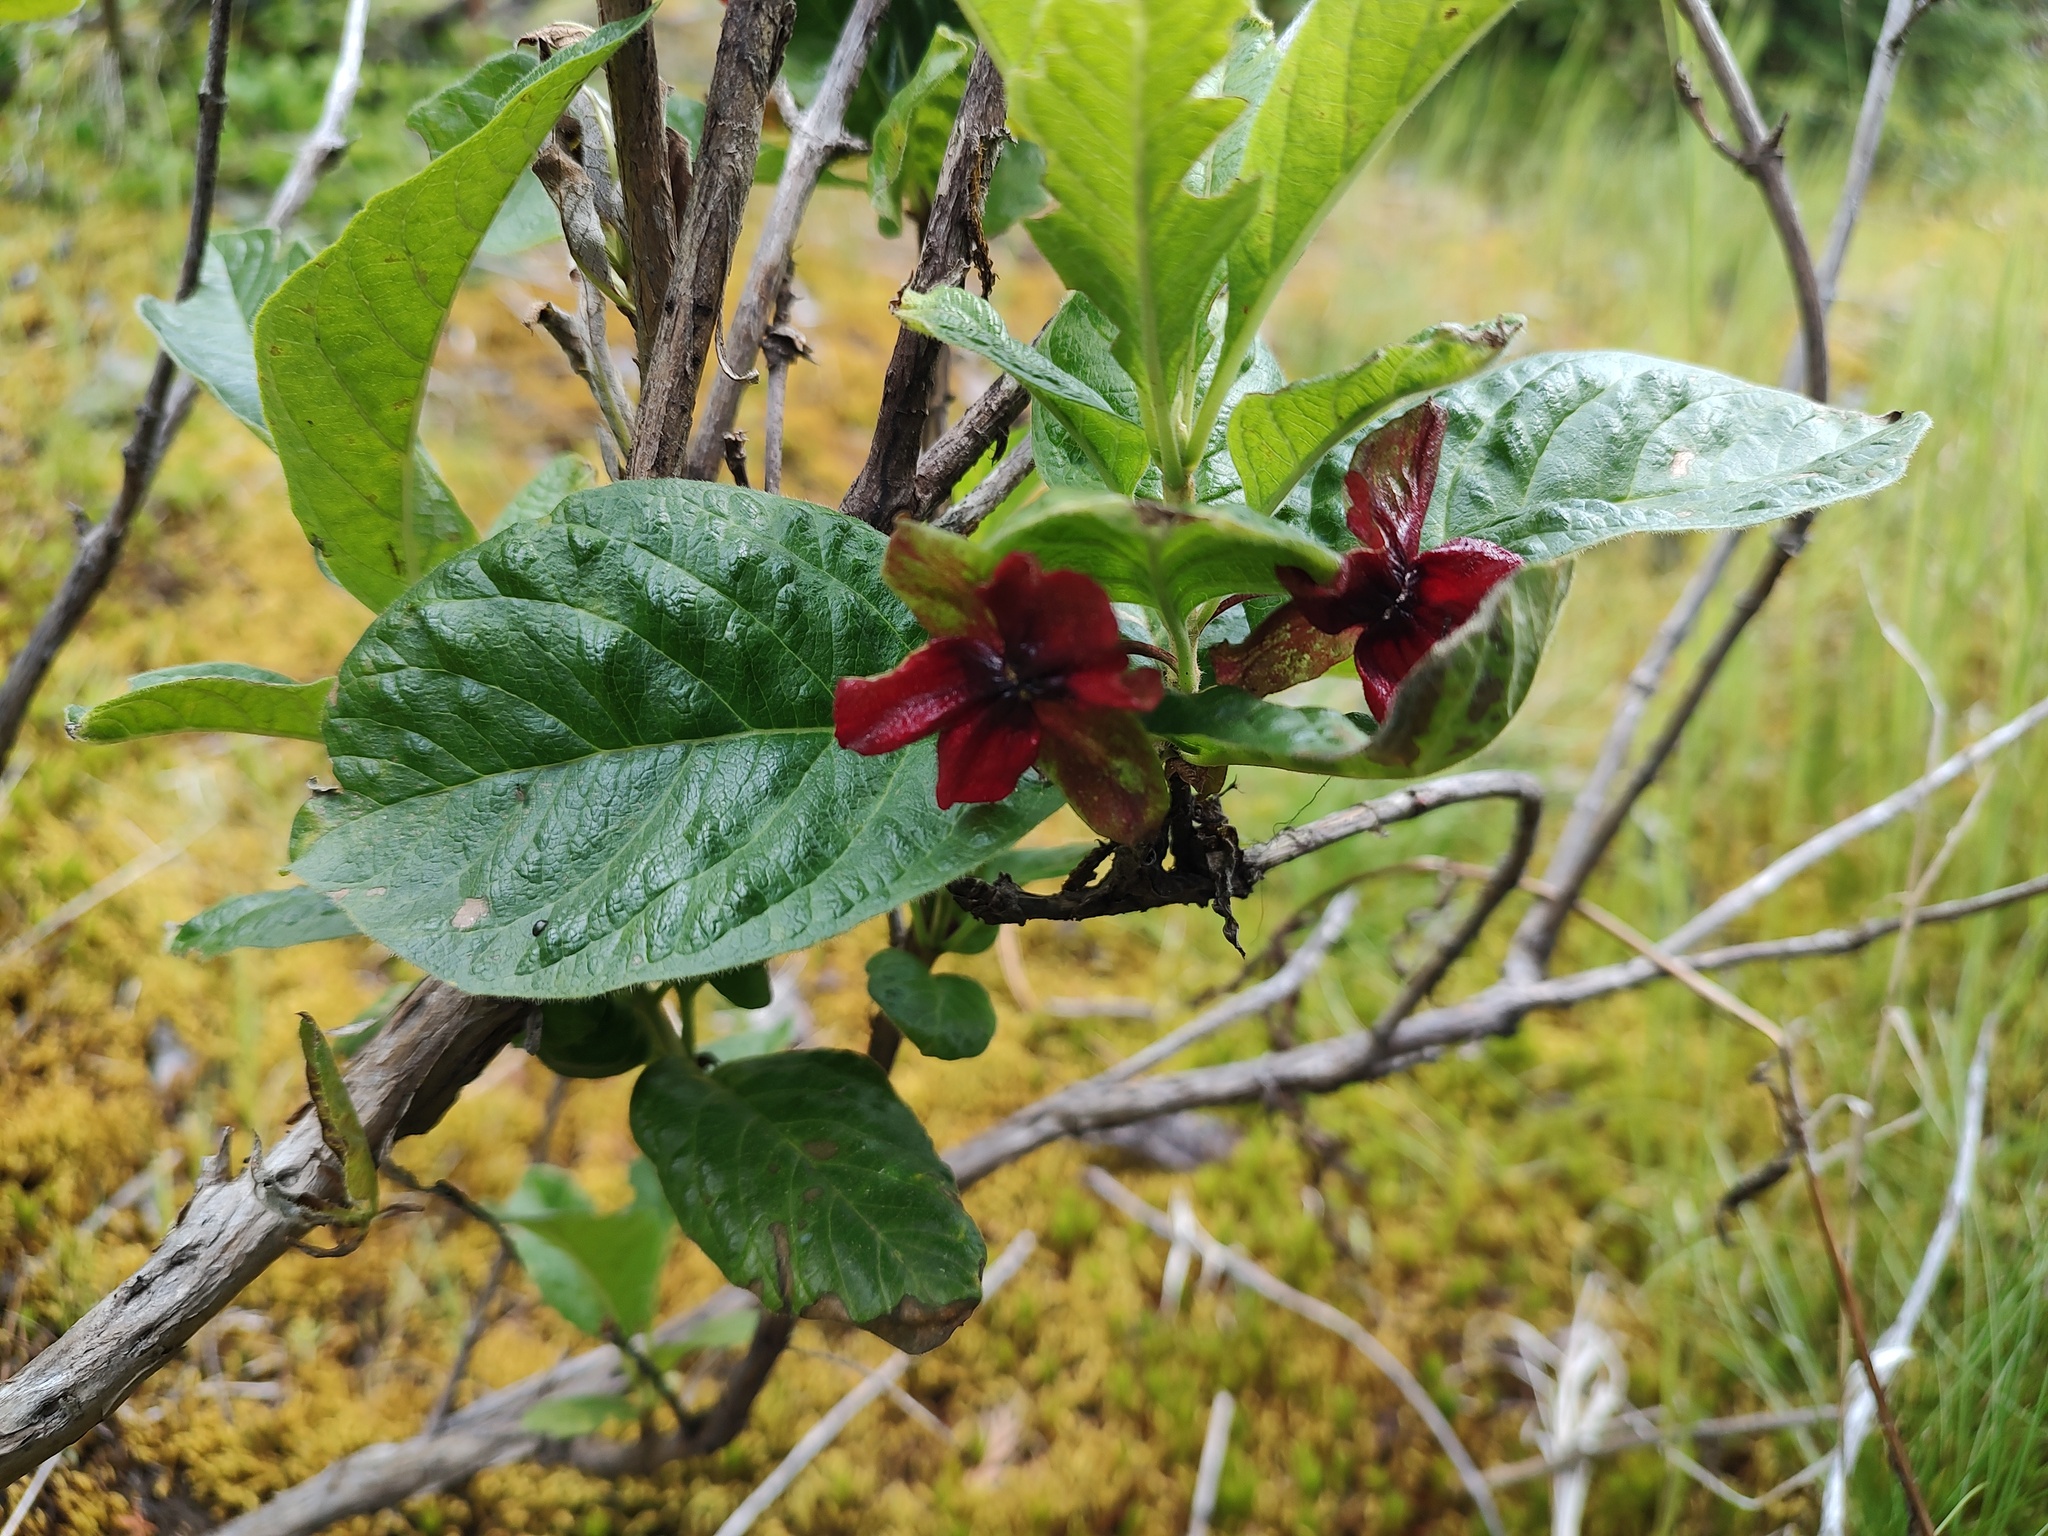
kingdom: Plantae
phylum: Tracheophyta
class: Magnoliopsida
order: Dipsacales
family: Caprifoliaceae
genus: Lonicera
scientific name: Lonicera involucrata
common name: Californian honeysuckle
